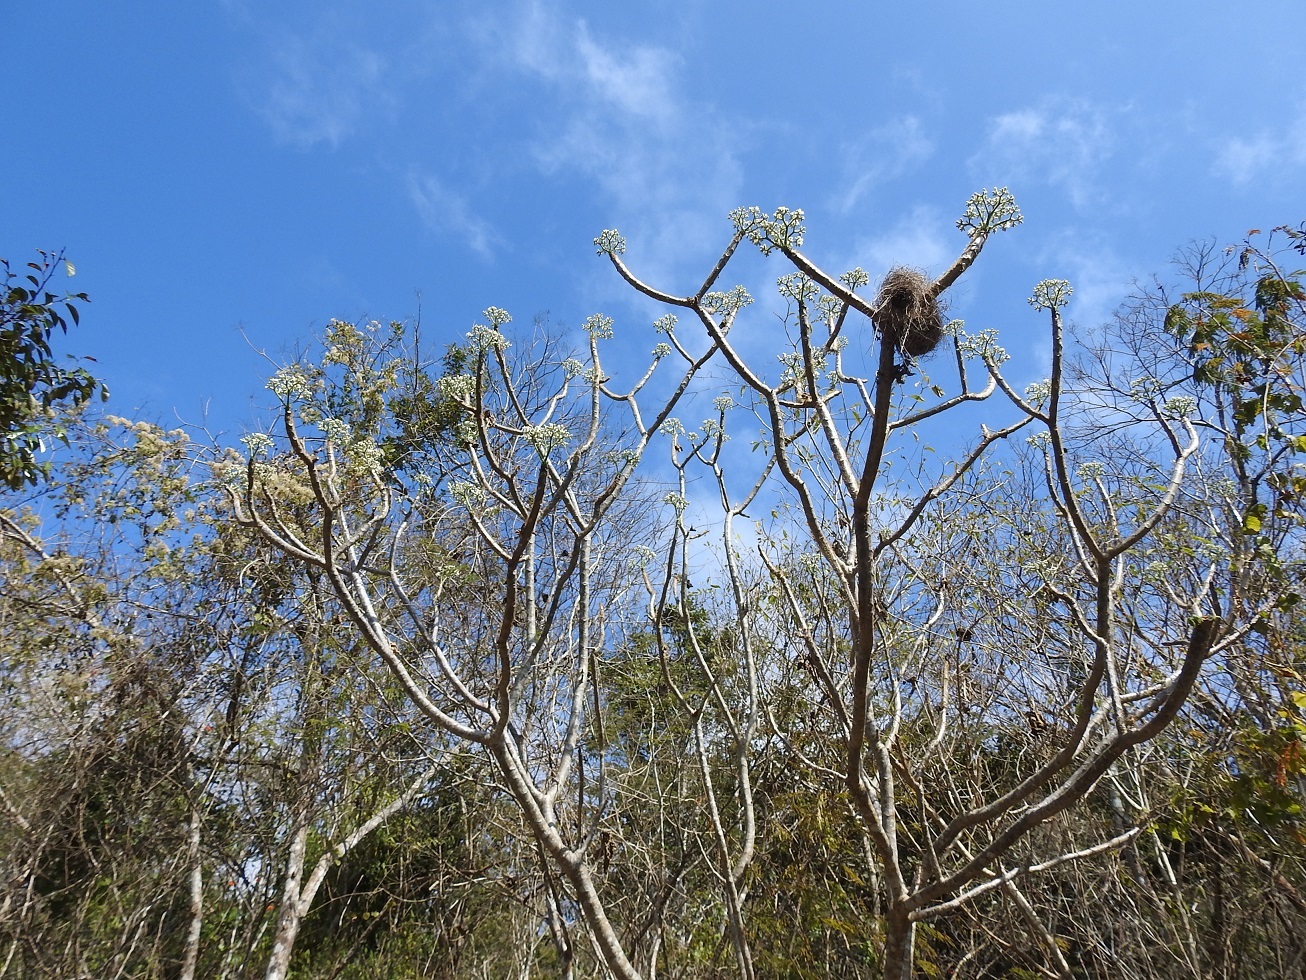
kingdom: Plantae
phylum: Tracheophyta
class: Magnoliopsida
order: Malpighiales
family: Euphorbiaceae
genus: Cnidoscolus
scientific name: Cnidoscolus aconitifolius
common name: Cabbage-star
